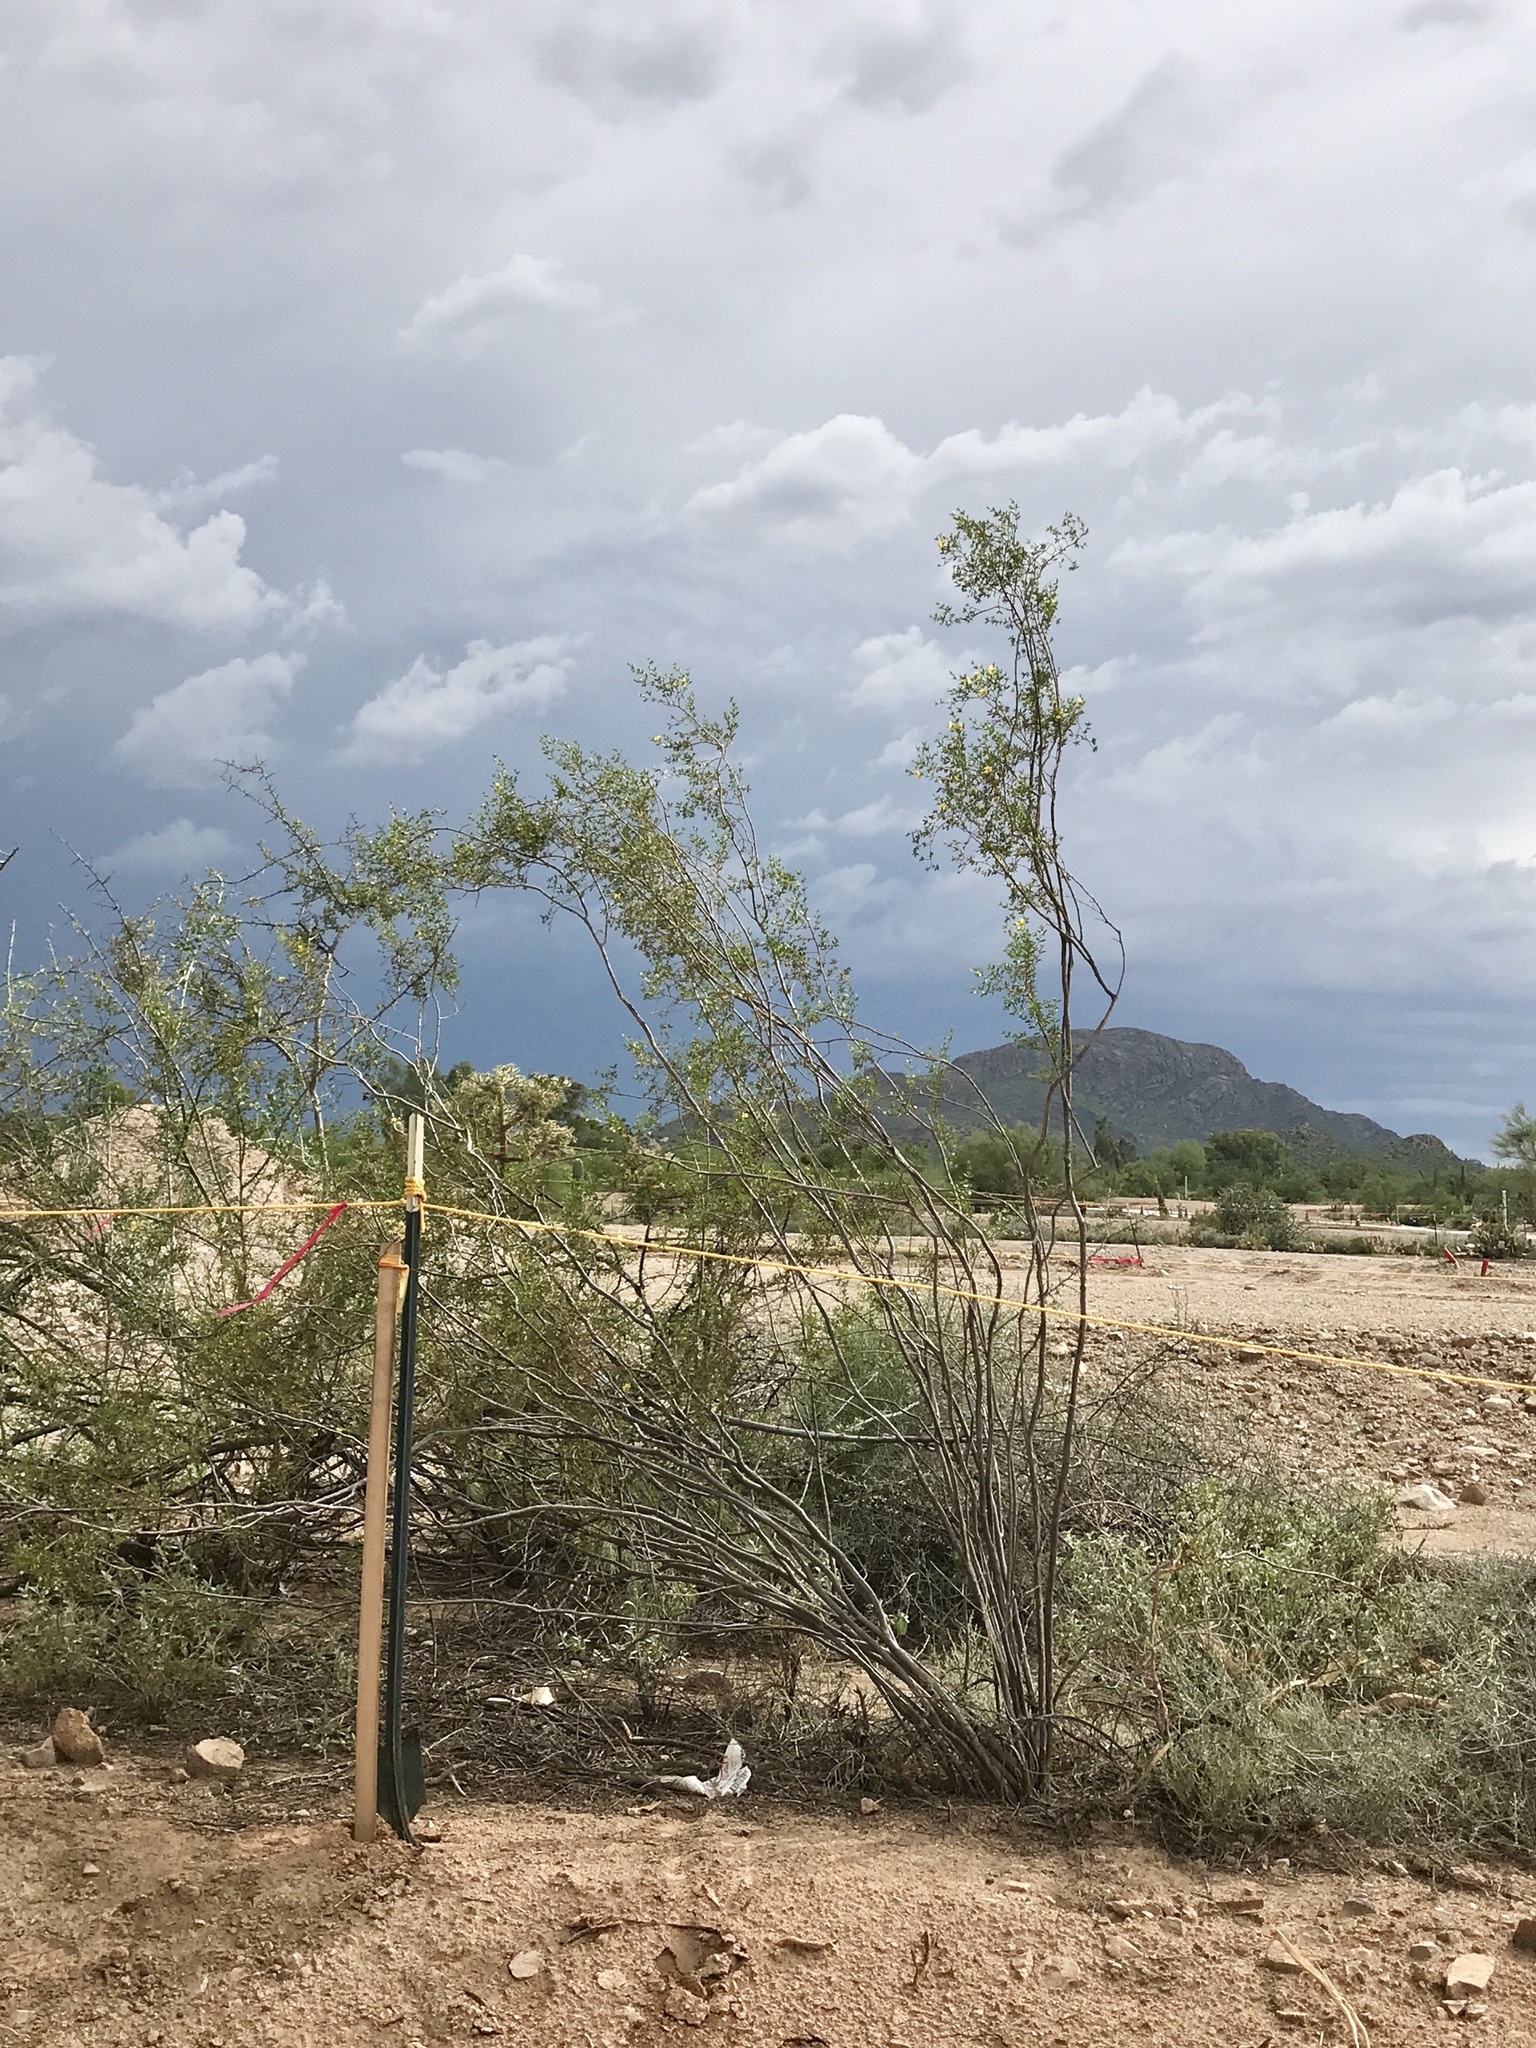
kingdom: Plantae
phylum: Tracheophyta
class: Magnoliopsida
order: Zygophyllales
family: Zygophyllaceae
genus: Larrea
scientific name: Larrea tridentata
